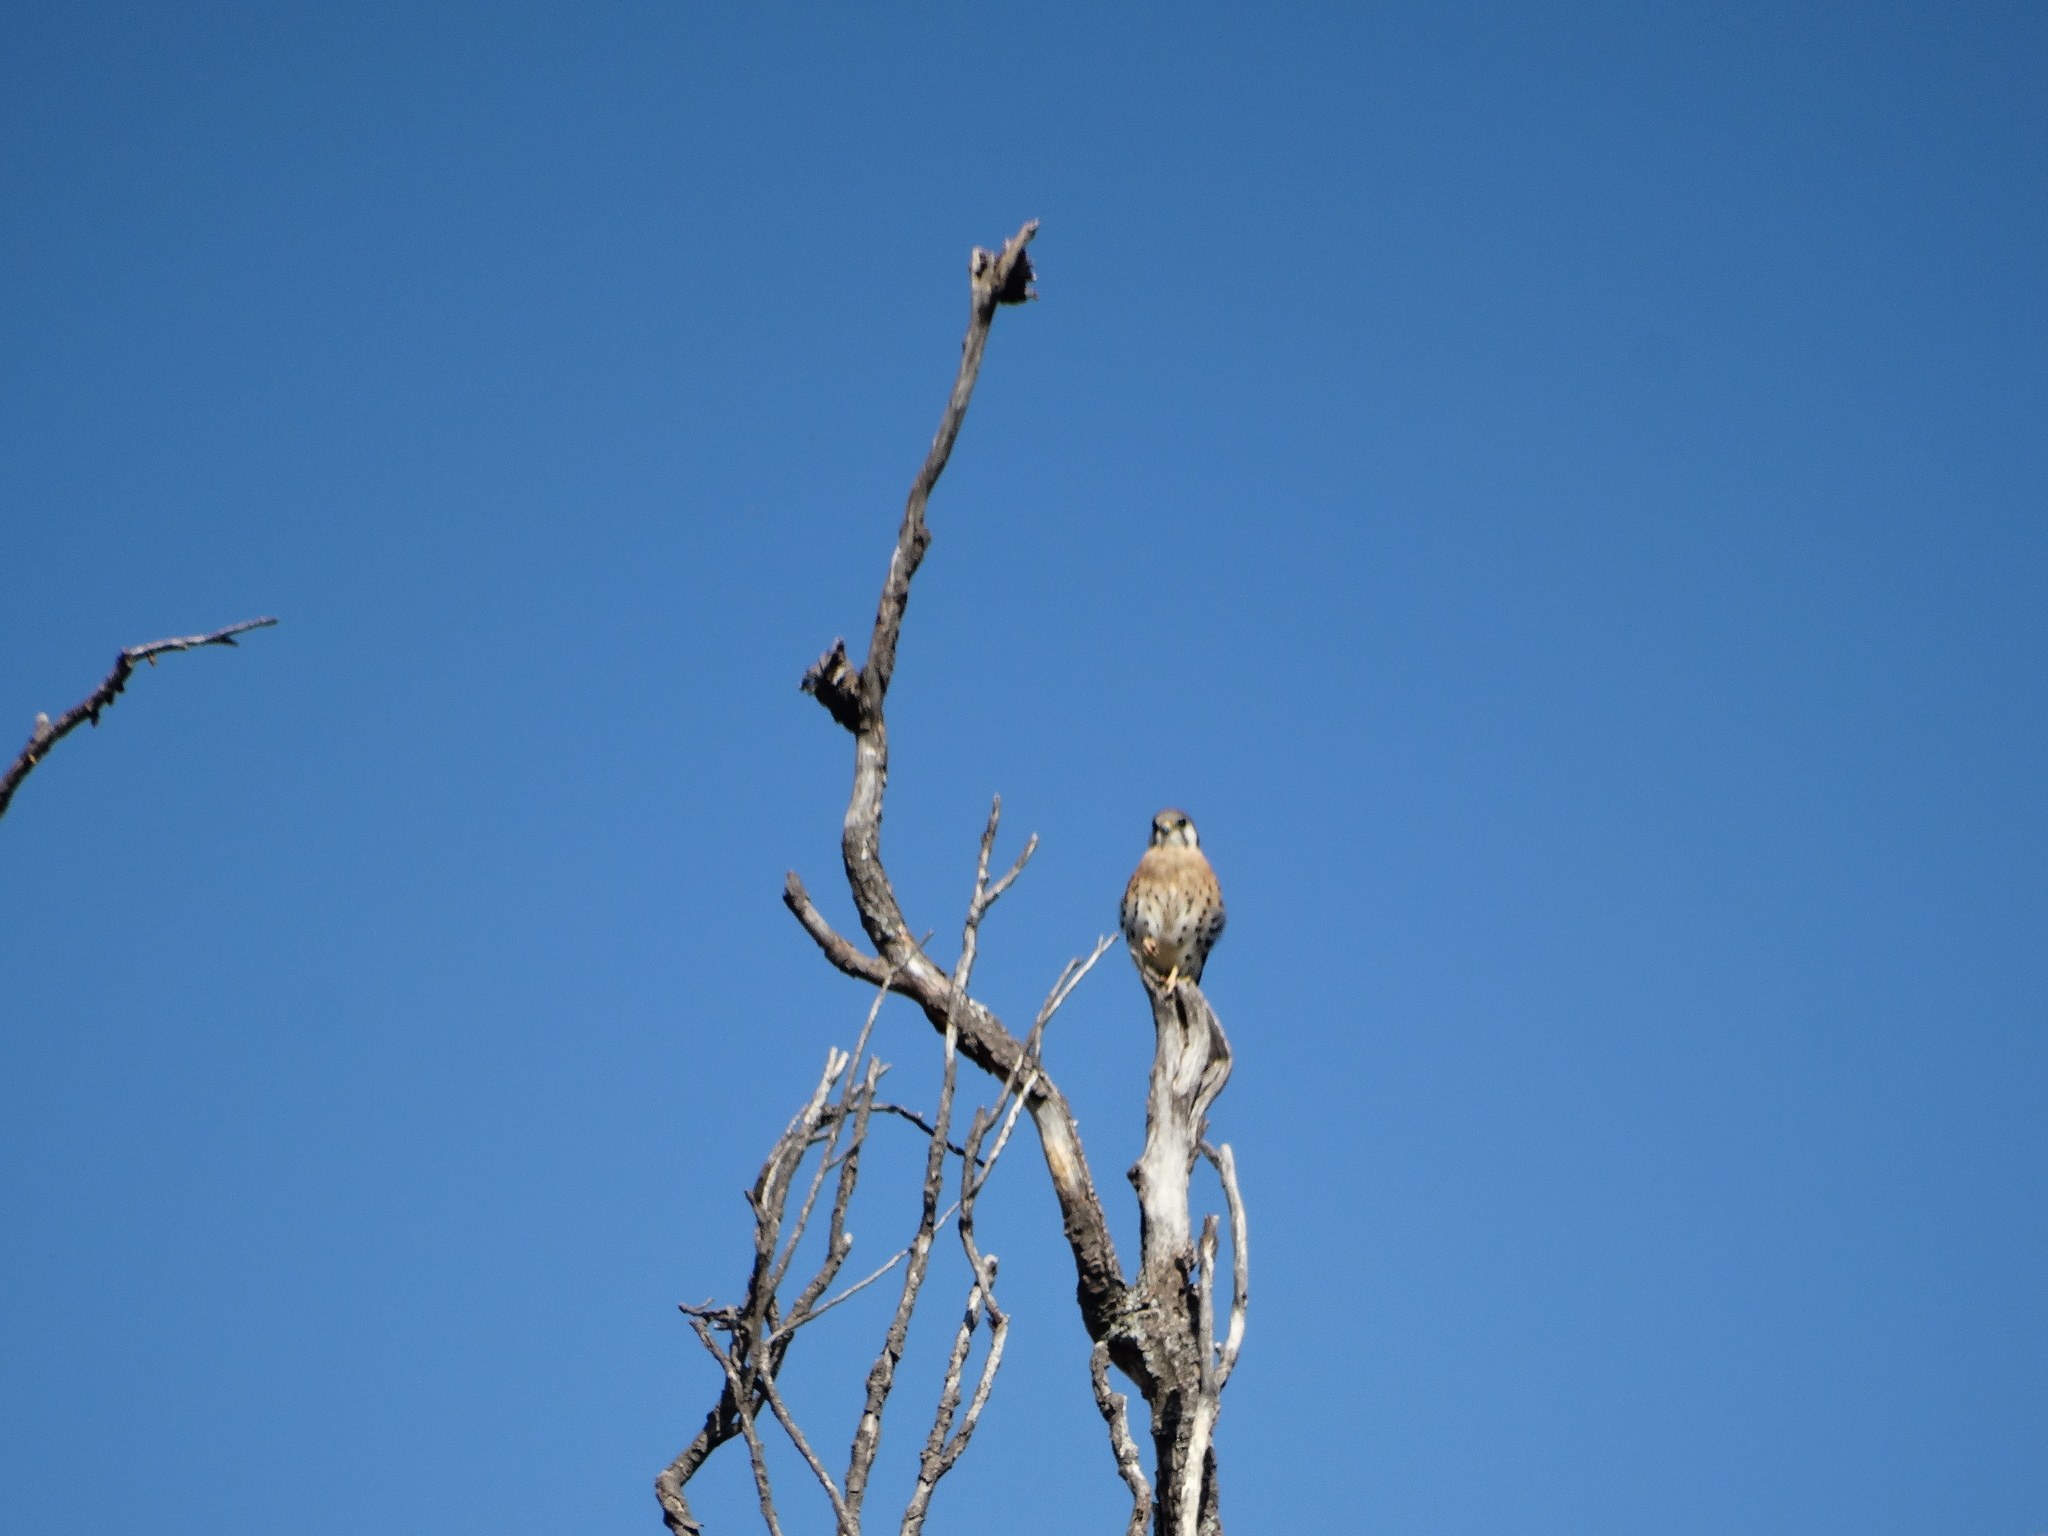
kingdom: Animalia
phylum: Chordata
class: Aves
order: Falconiformes
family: Falconidae
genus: Falco
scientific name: Falco sparverius
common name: American kestrel
